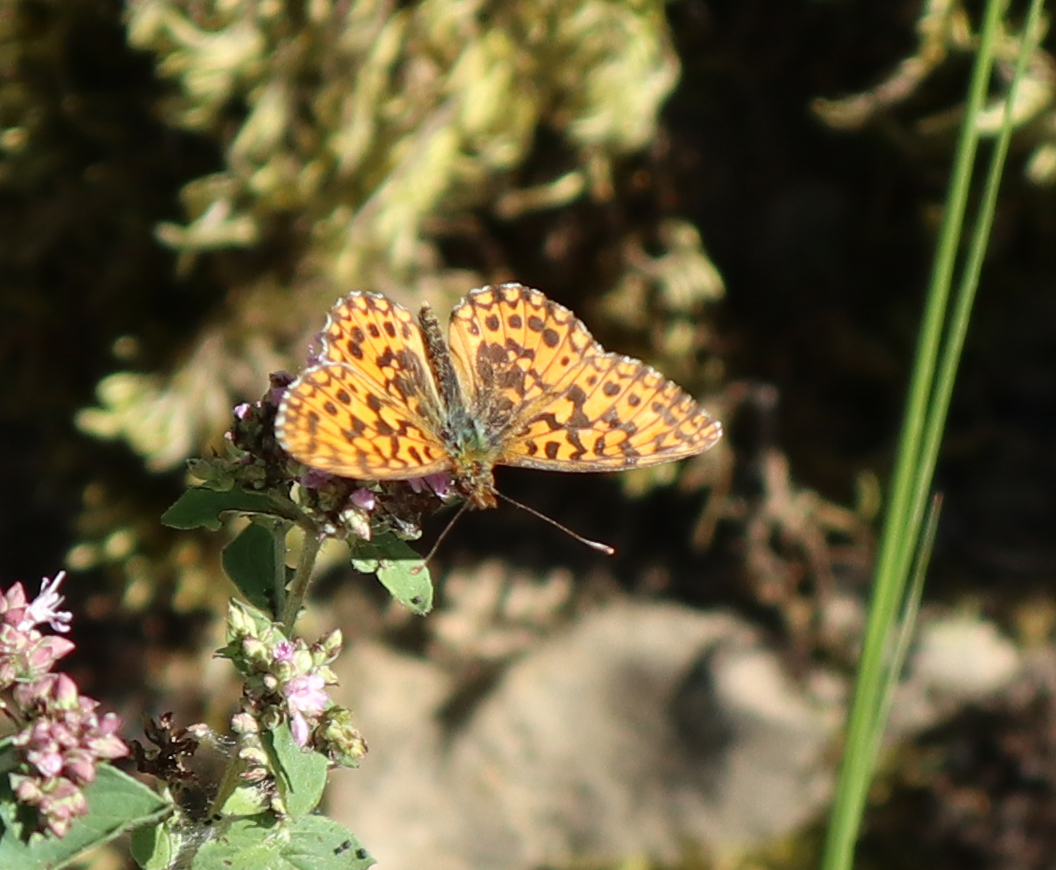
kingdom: Animalia
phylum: Arthropoda
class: Insecta
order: Lepidoptera
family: Nymphalidae
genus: Boloria
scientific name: Boloria dia
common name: Weaver's fritillary
